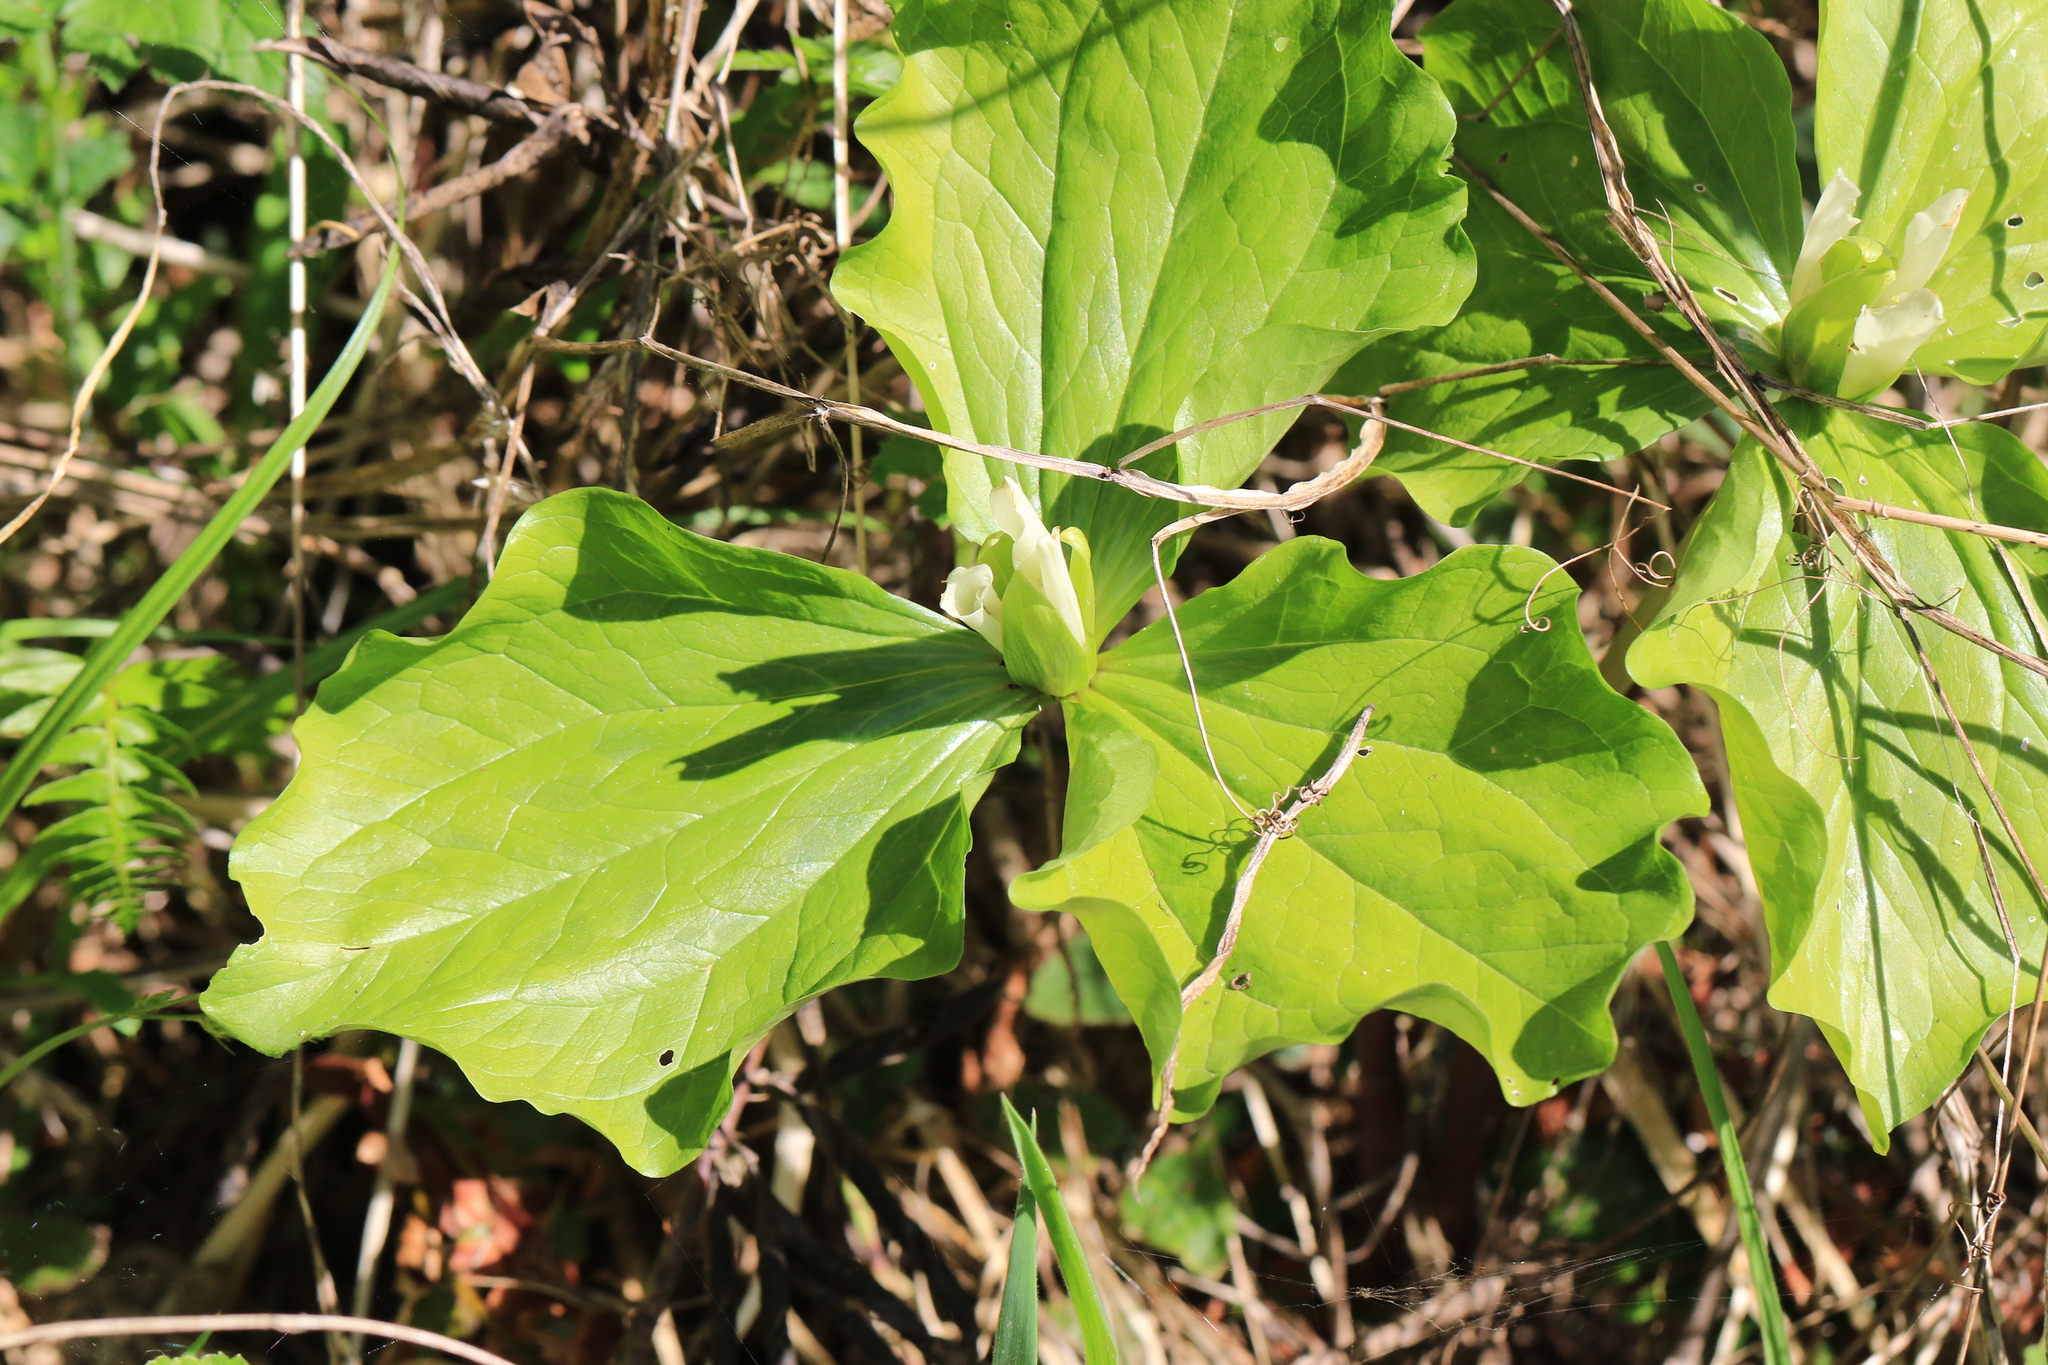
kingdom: Plantae
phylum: Tracheophyta
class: Liliopsida
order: Liliales
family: Melanthiaceae
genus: Trillium
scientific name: Trillium albidum
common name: Freeman's trillium
